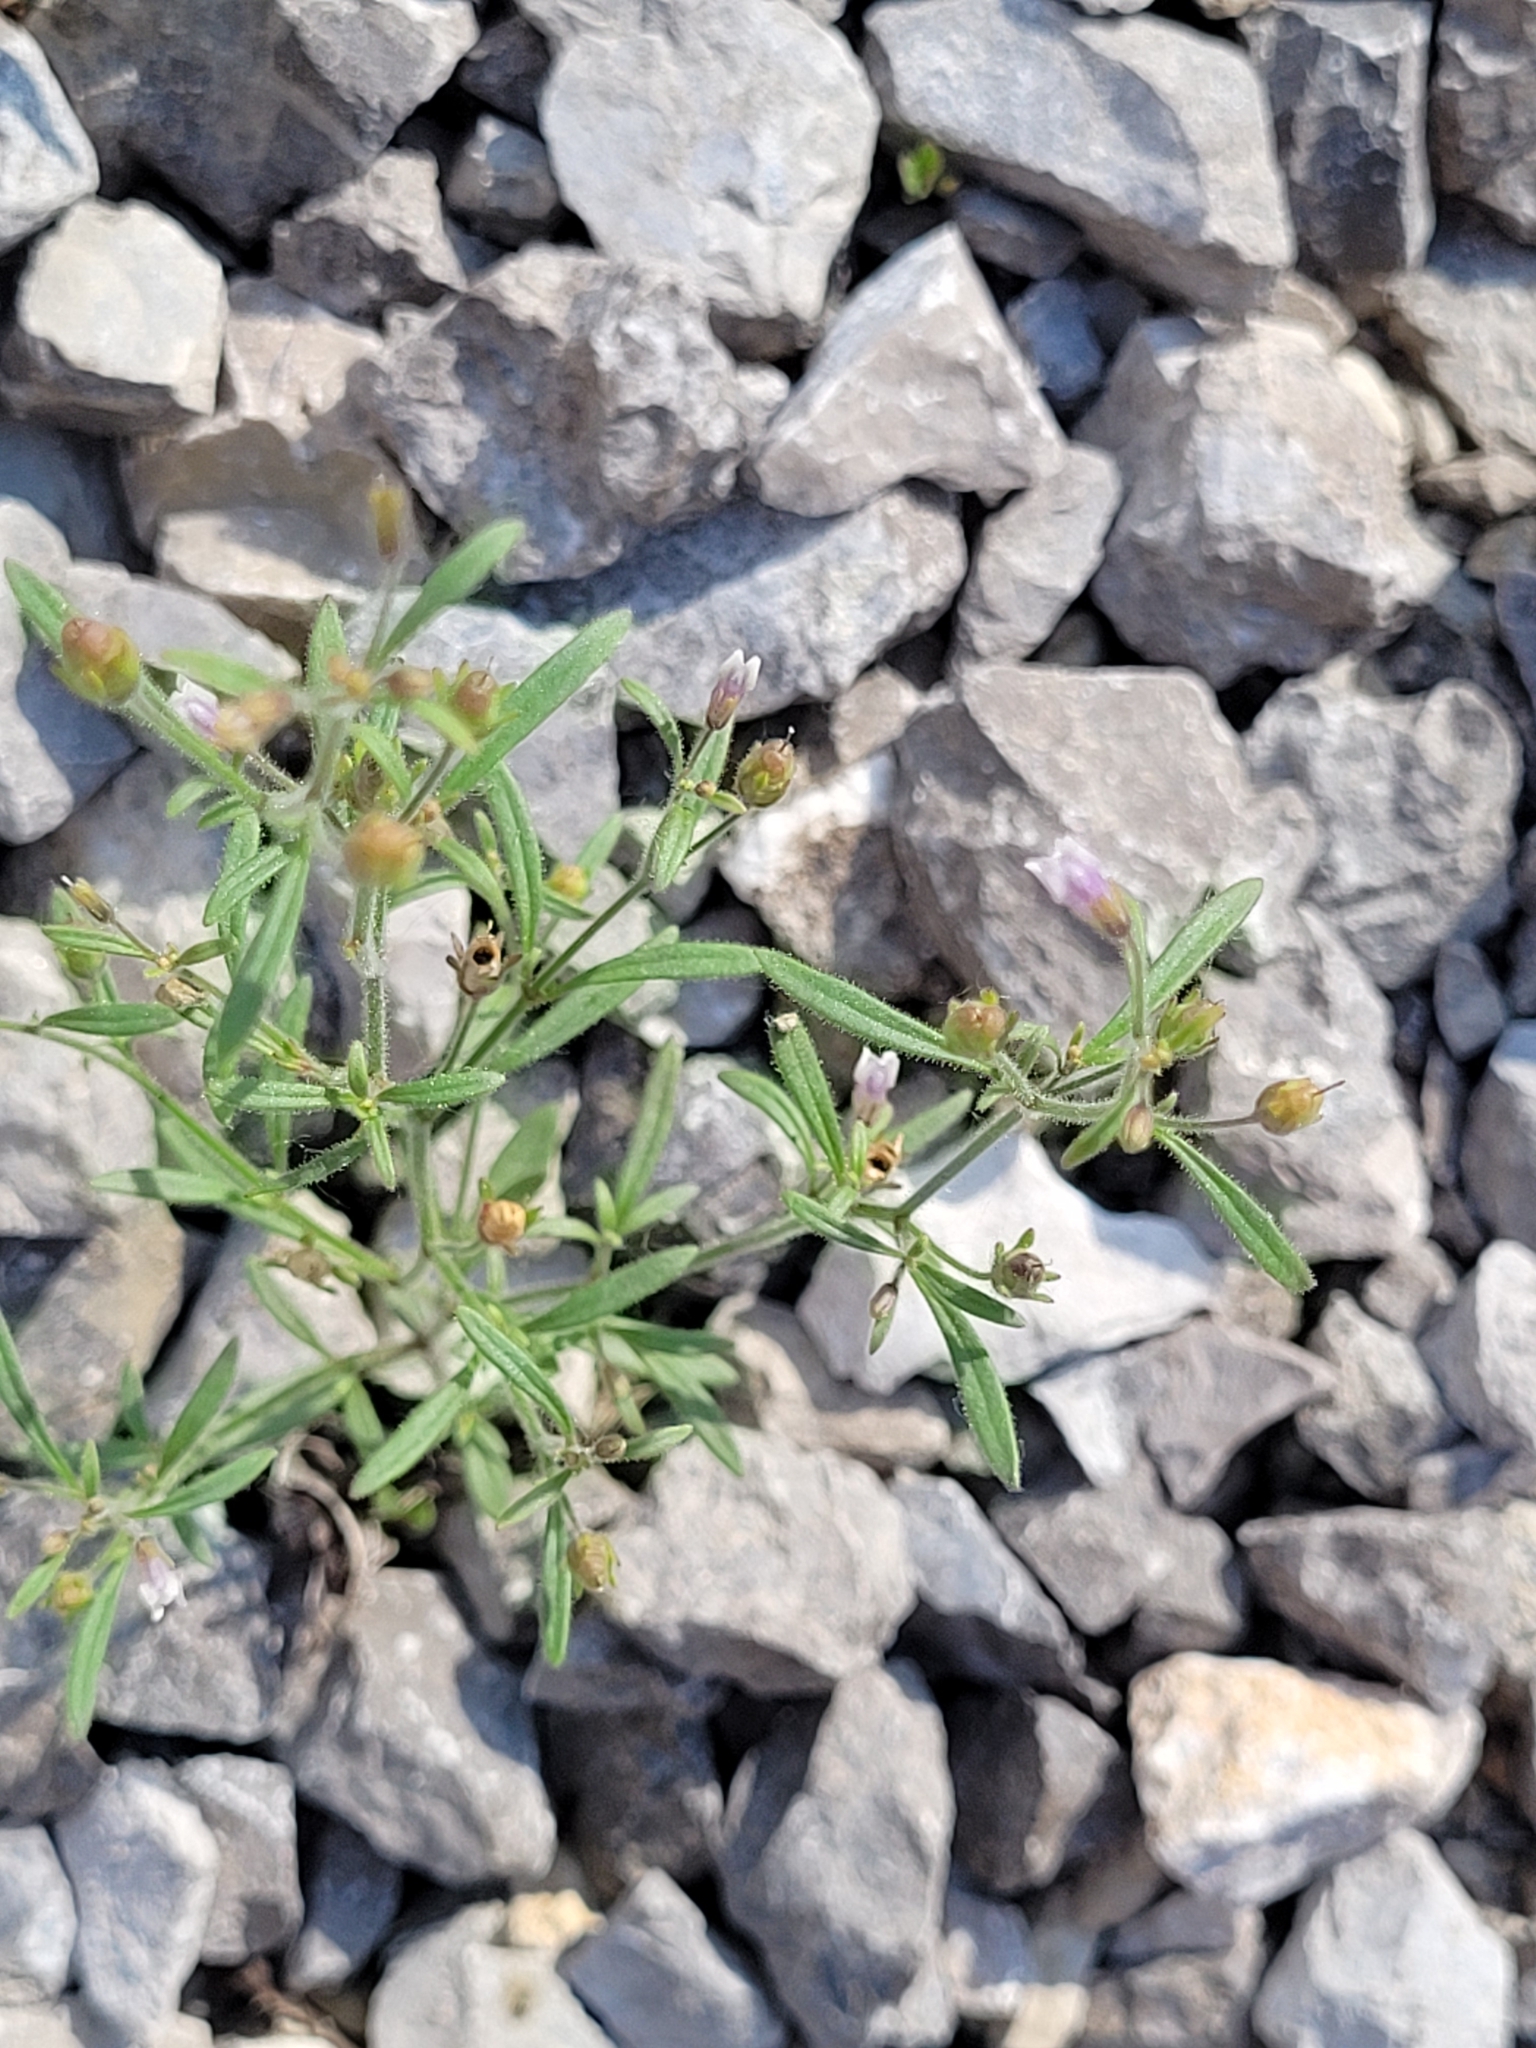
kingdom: Plantae
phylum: Tracheophyta
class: Magnoliopsida
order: Lamiales
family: Plantaginaceae
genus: Chaenorhinum
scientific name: Chaenorhinum minus
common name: Dwarf snapdragon
